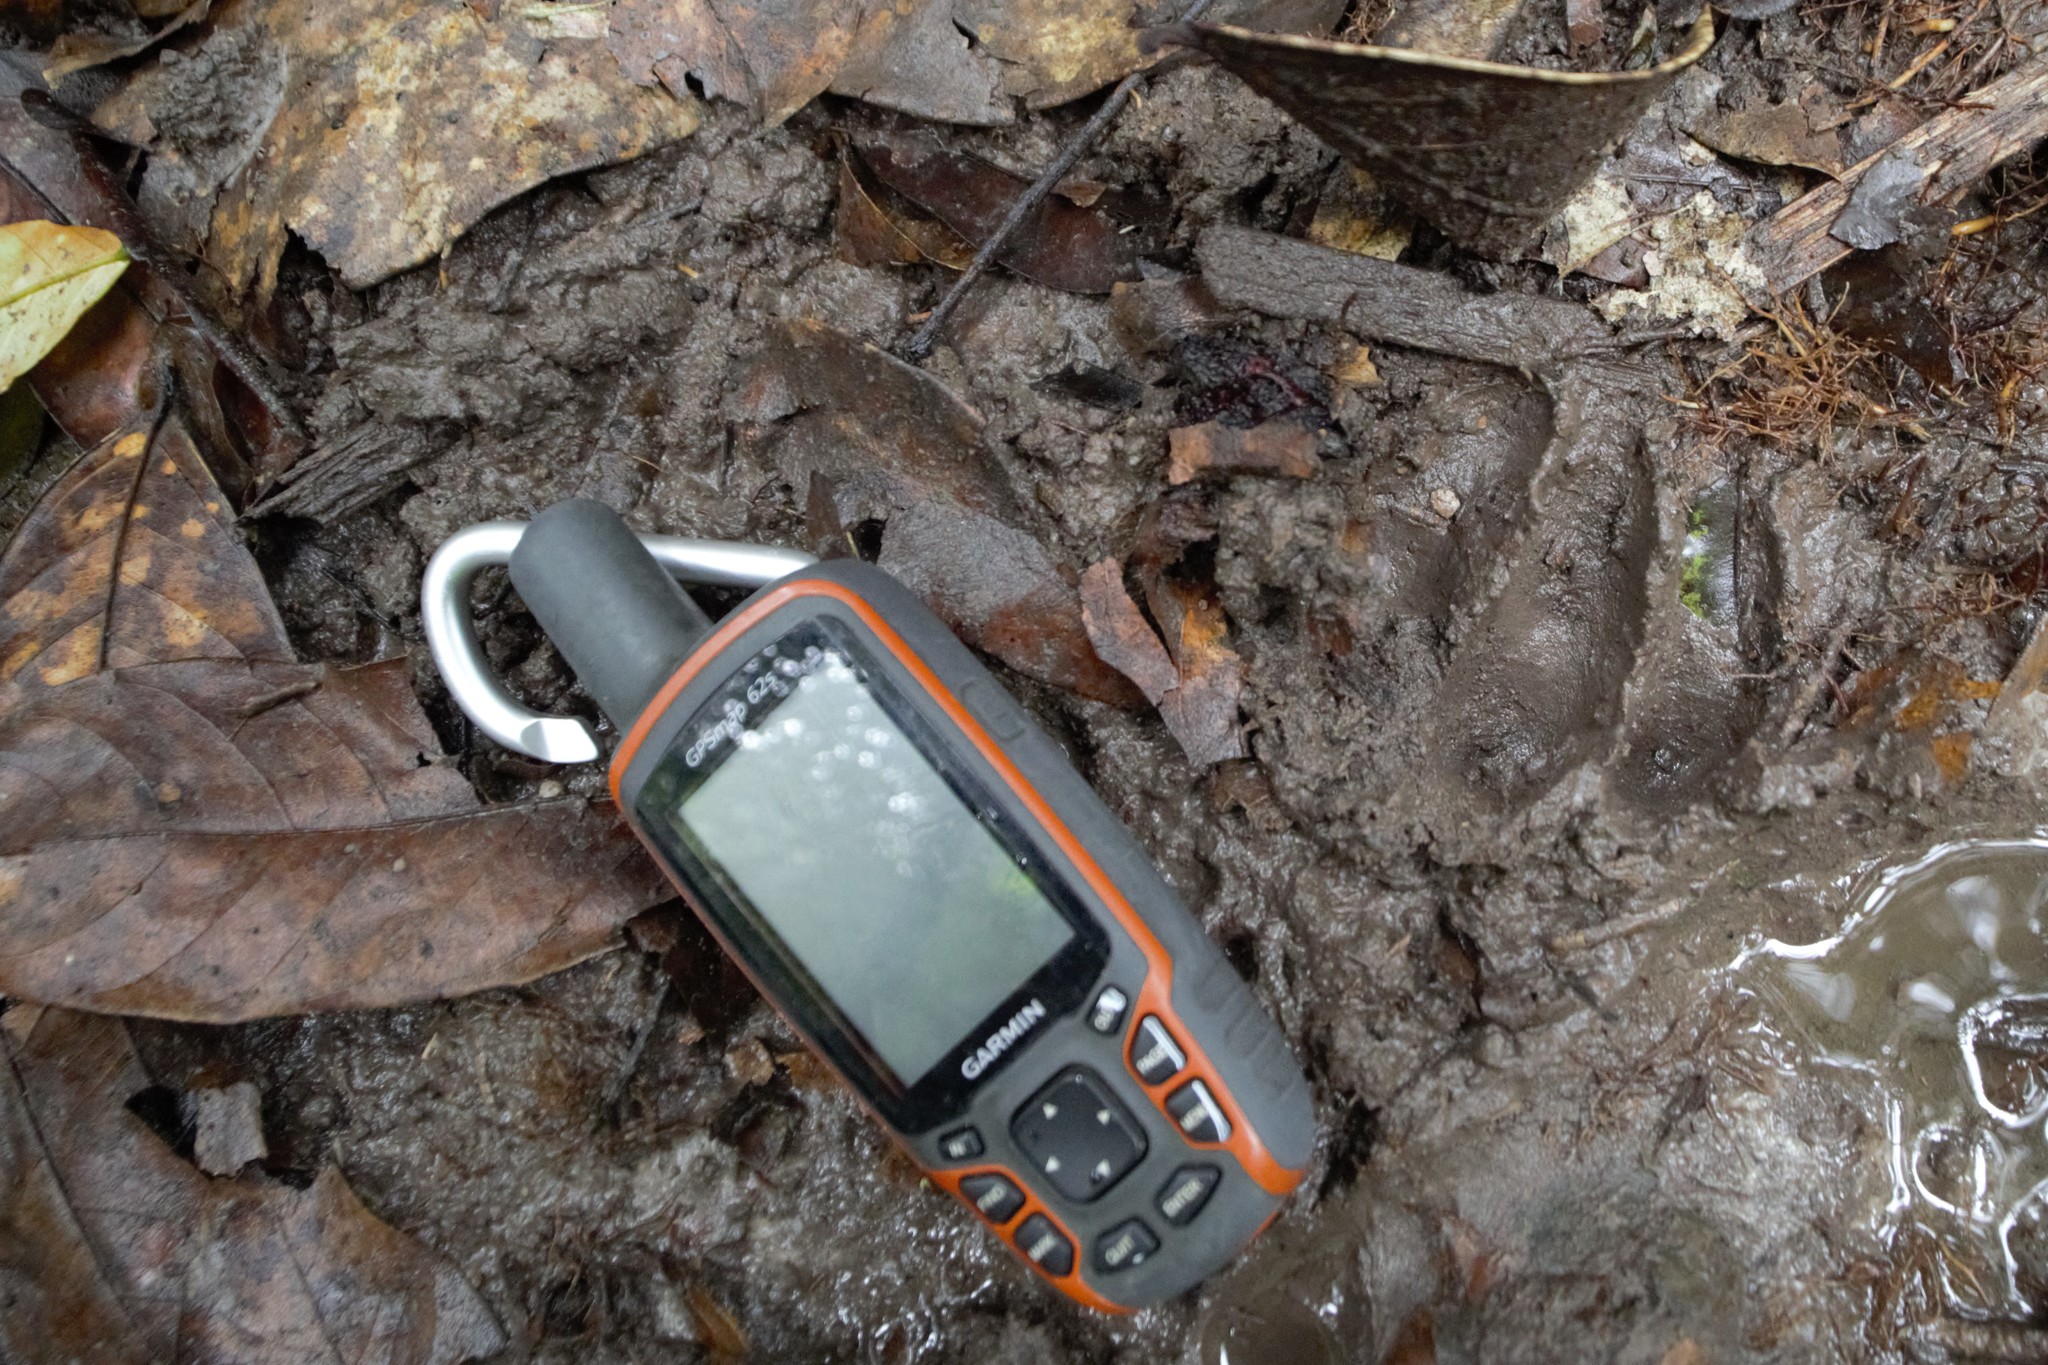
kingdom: Animalia
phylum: Chordata
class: Mammalia
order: Primates
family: Hominidae
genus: Pan
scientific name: Pan troglodytes
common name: Chimpanzee
